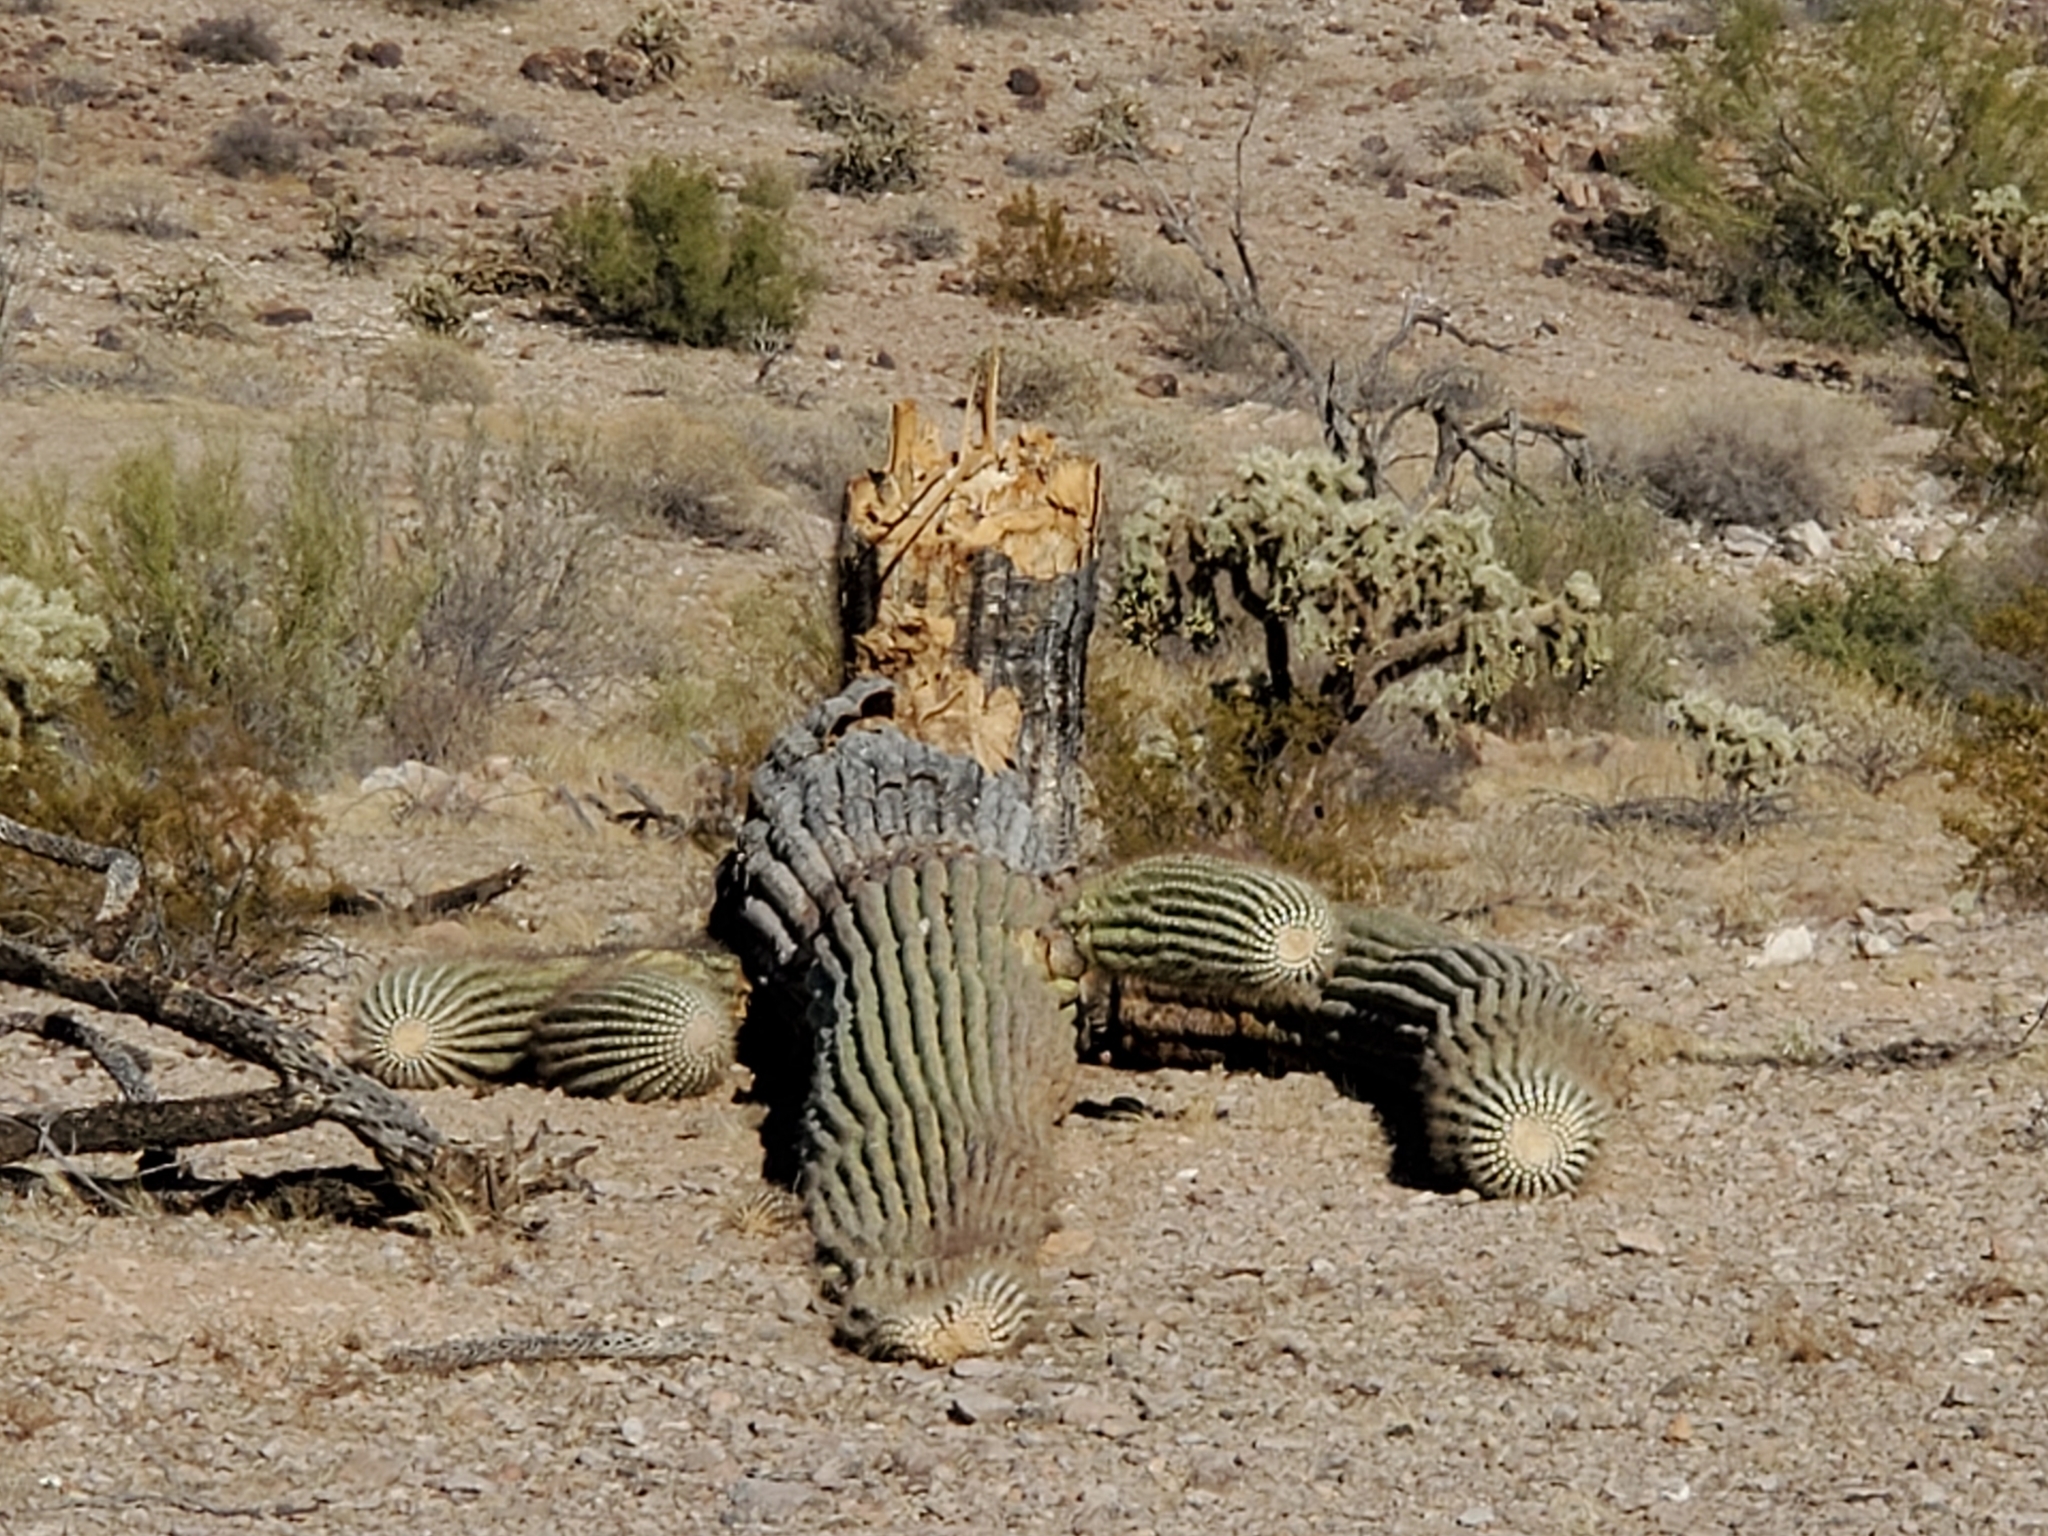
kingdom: Plantae
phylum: Tracheophyta
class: Magnoliopsida
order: Caryophyllales
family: Cactaceae
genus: Carnegiea
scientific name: Carnegiea gigantea
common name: Saguaro
